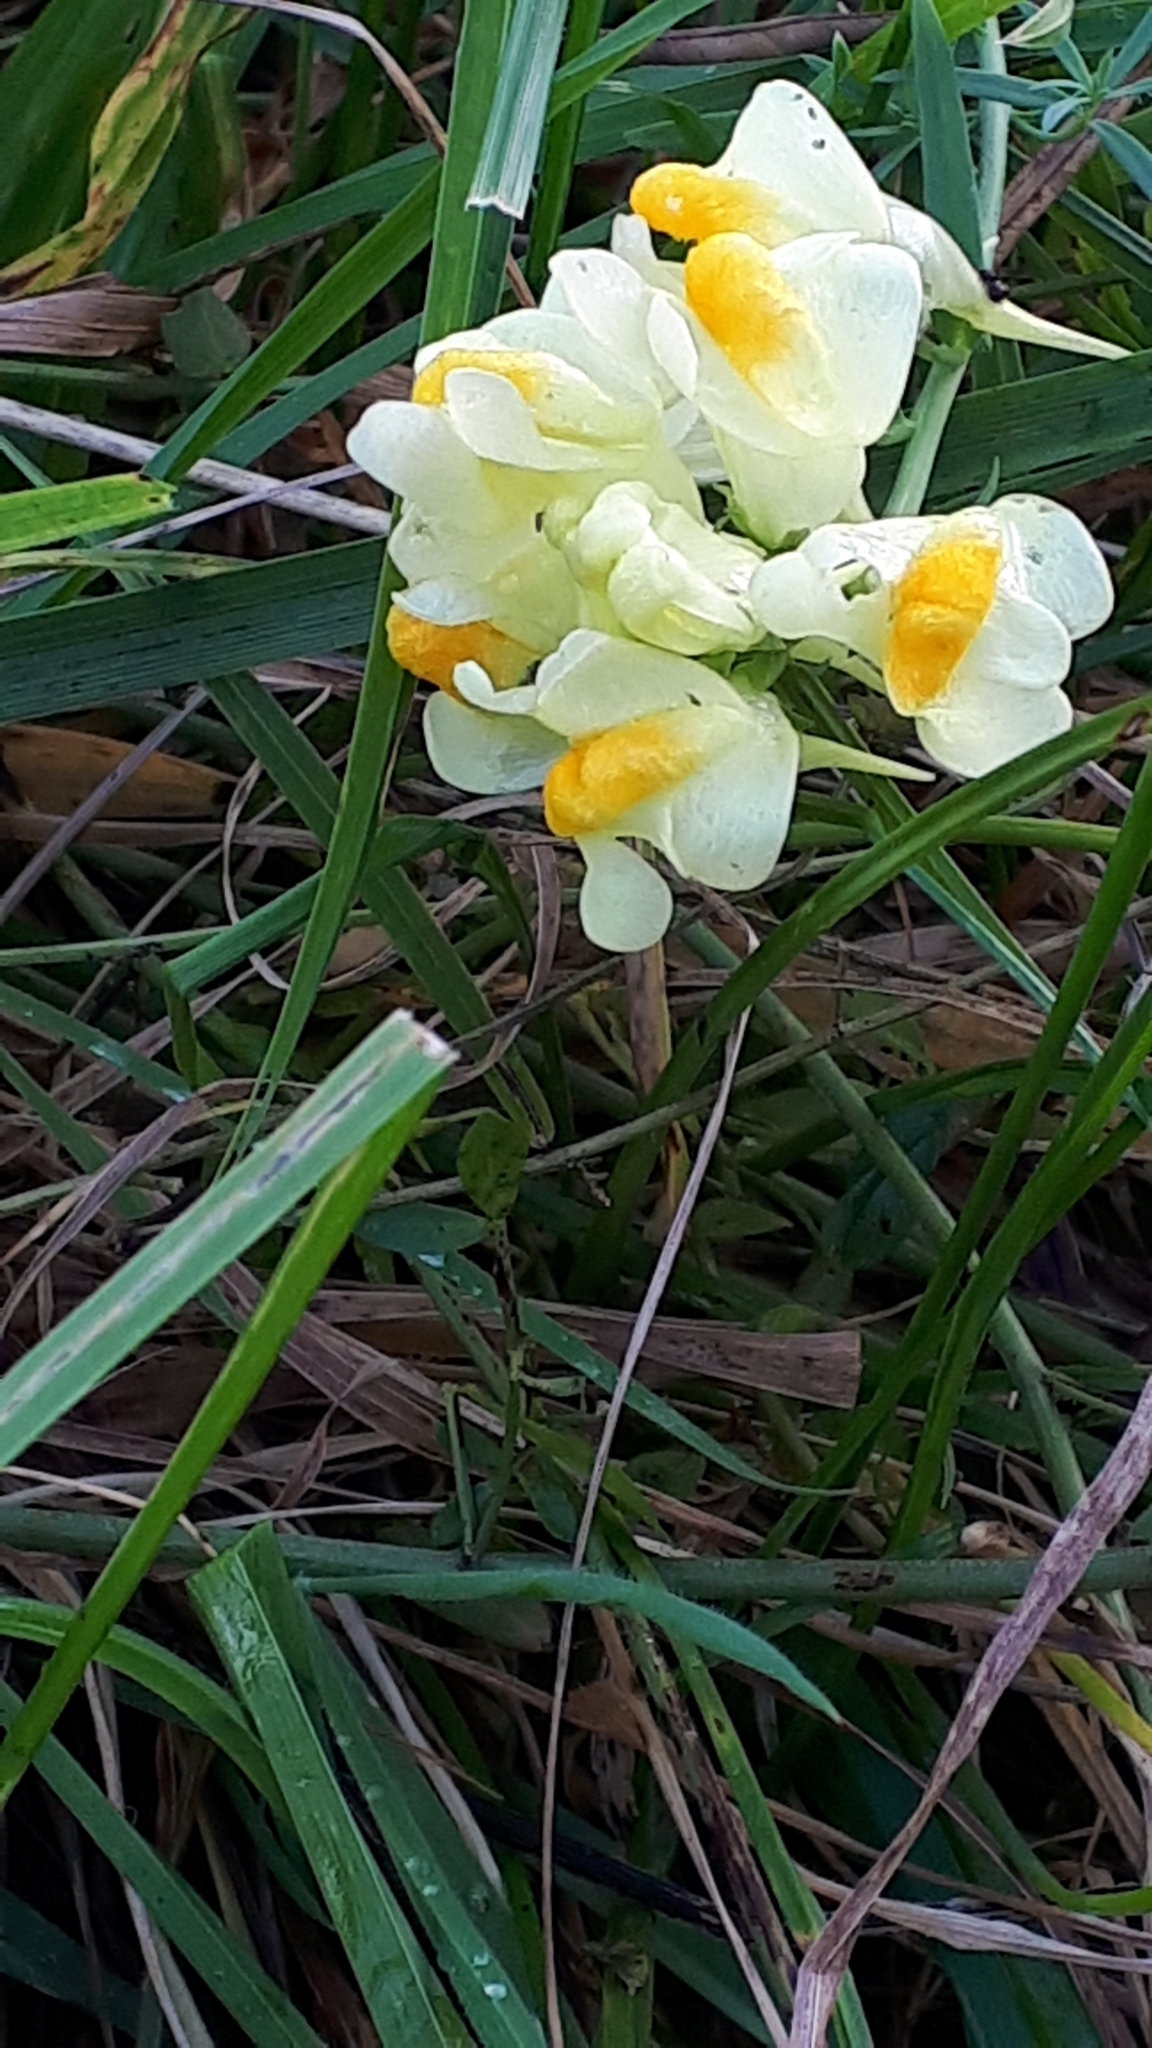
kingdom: Plantae
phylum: Tracheophyta
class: Magnoliopsida
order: Lamiales
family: Plantaginaceae
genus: Linaria
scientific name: Linaria vulgaris
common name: Butter and eggs
